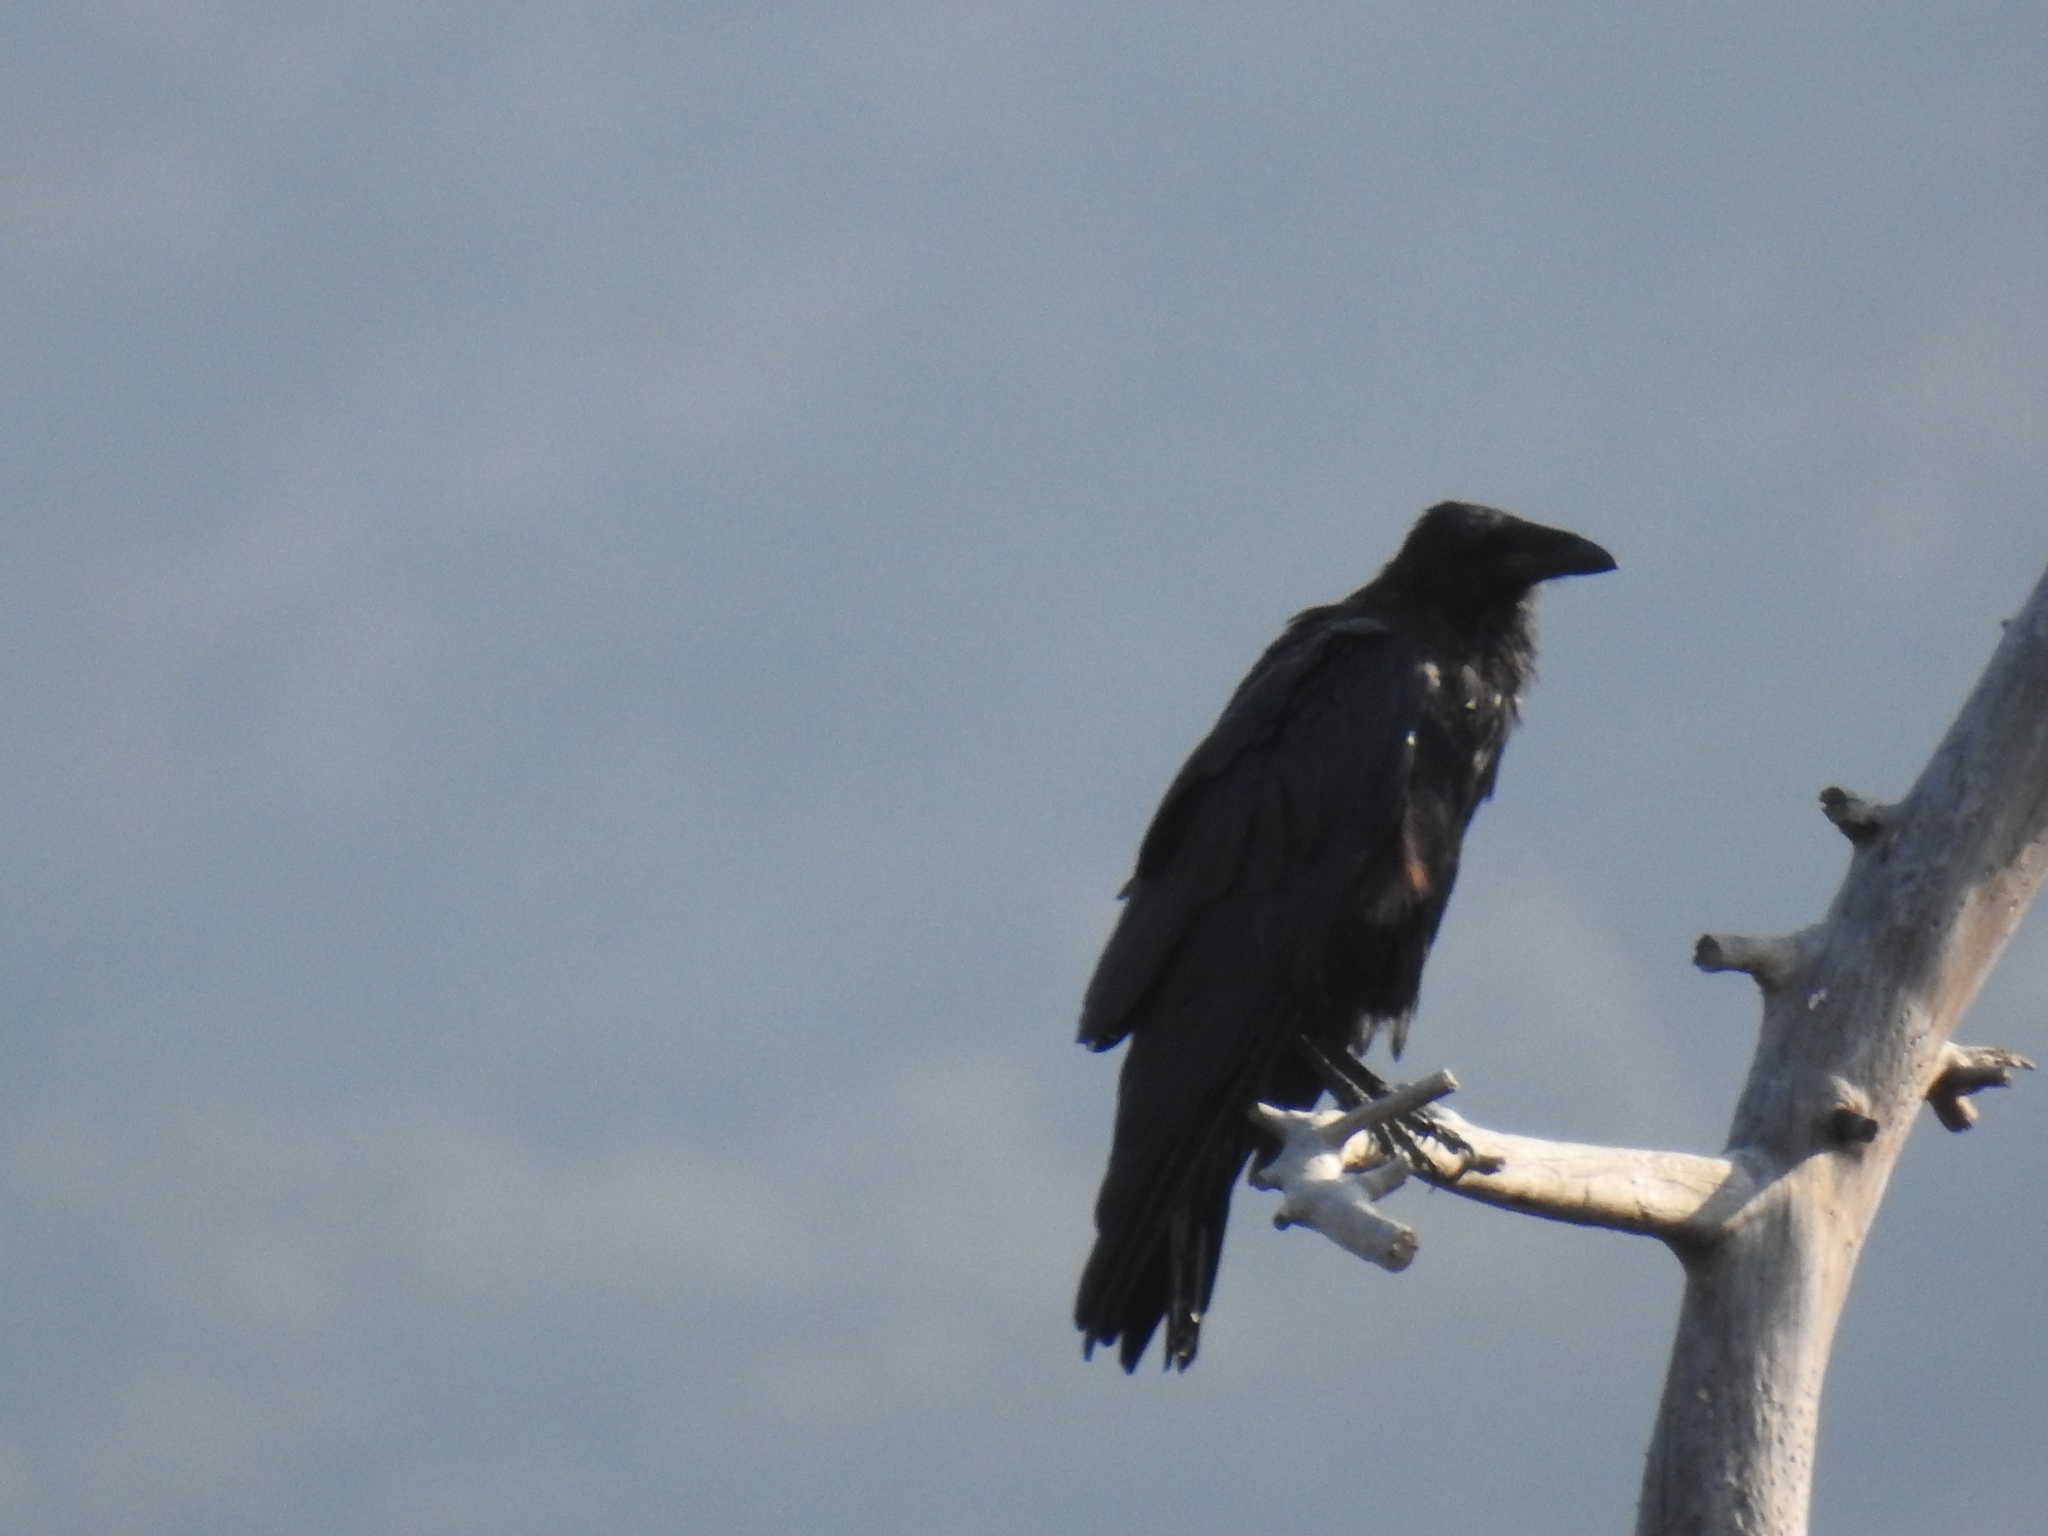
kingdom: Animalia
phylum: Chordata
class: Aves
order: Passeriformes
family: Corvidae
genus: Corvus
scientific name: Corvus corax
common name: Common raven
